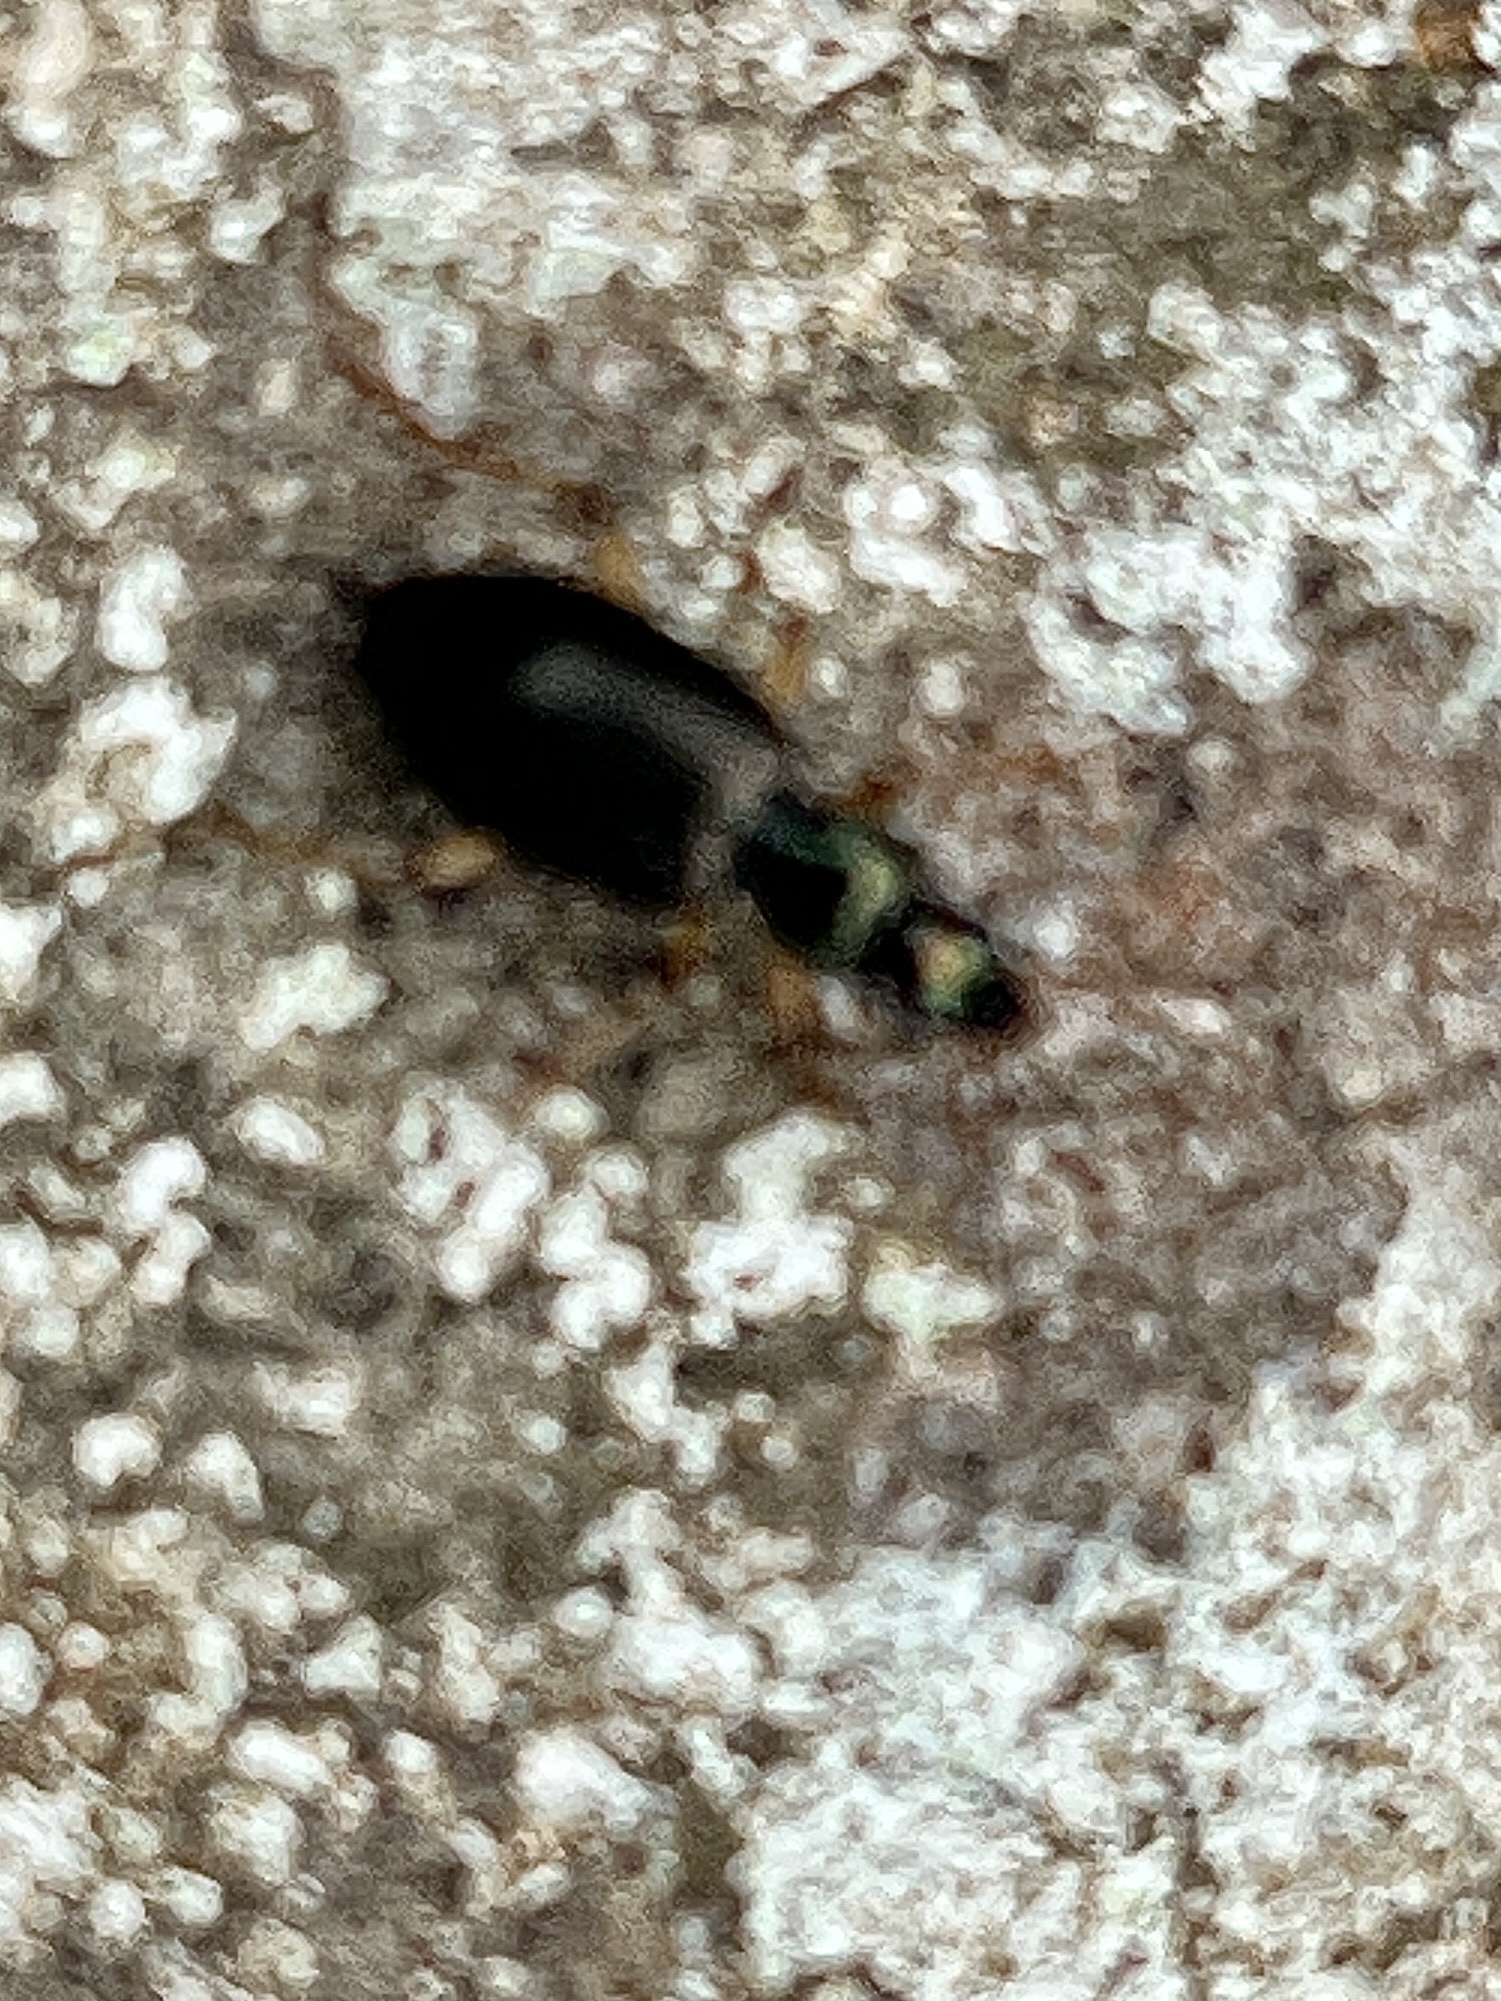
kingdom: Animalia
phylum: Arthropoda
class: Insecta
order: Coleoptera
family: Carabidae
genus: Agonum
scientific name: Agonum extensicolle
